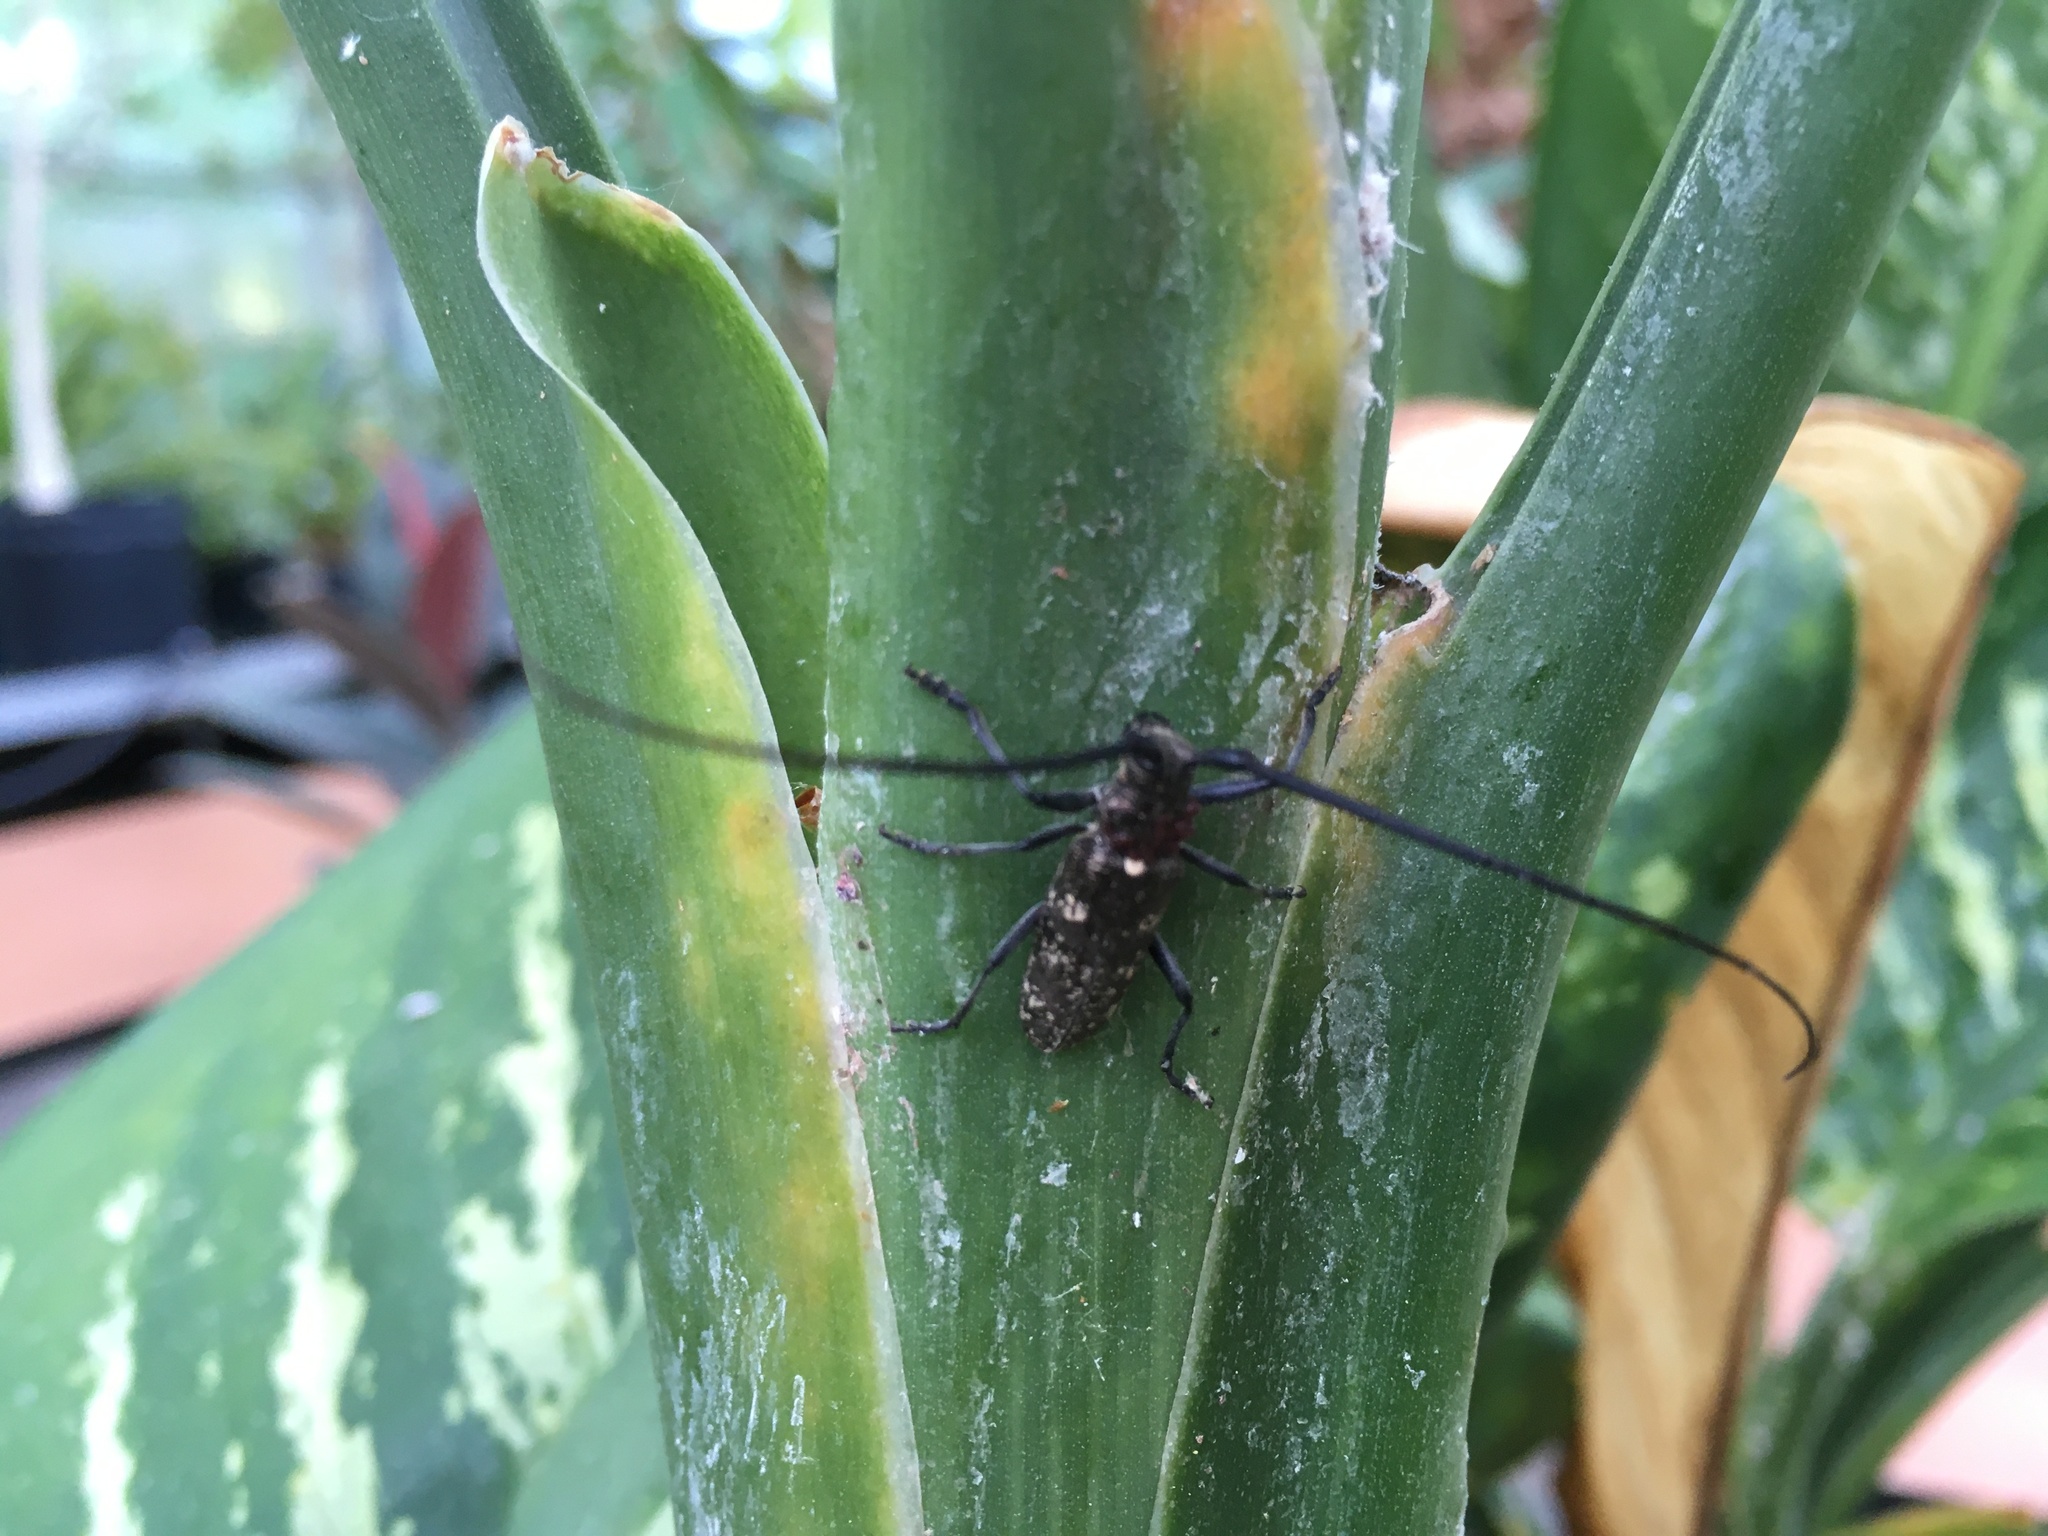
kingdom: Animalia
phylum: Arthropoda
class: Insecta
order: Coleoptera
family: Cerambycidae
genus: Monochamus
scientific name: Monochamus scutellatus
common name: White-spotted sawyer beetle
